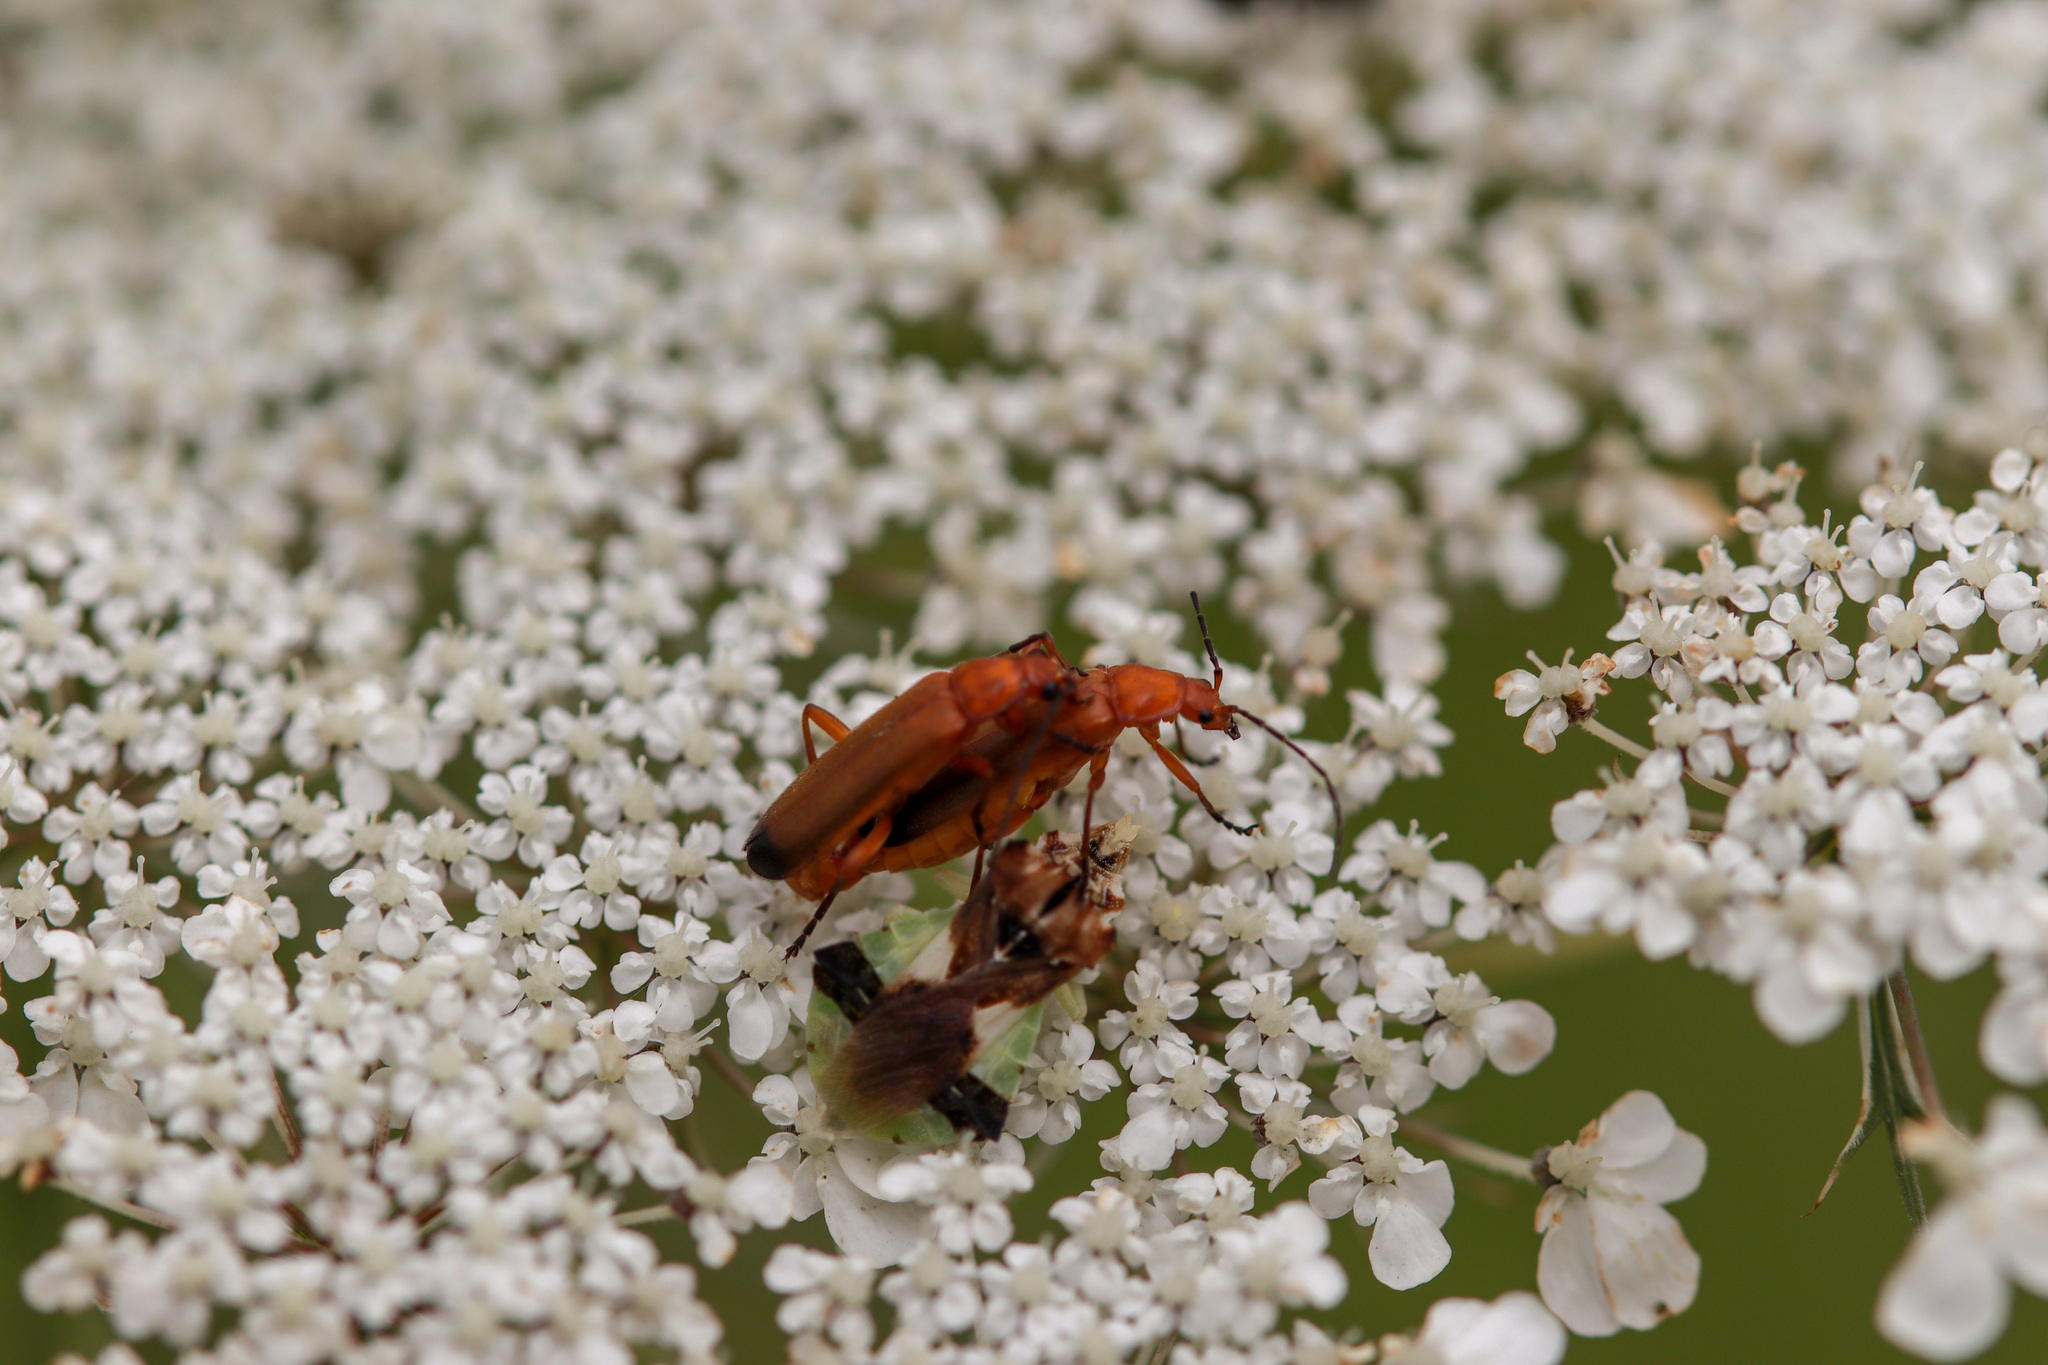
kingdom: Animalia
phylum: Arthropoda
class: Insecta
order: Coleoptera
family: Cantharidae
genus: Rhagonycha
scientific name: Rhagonycha fulva
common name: Common red soldier beetle
